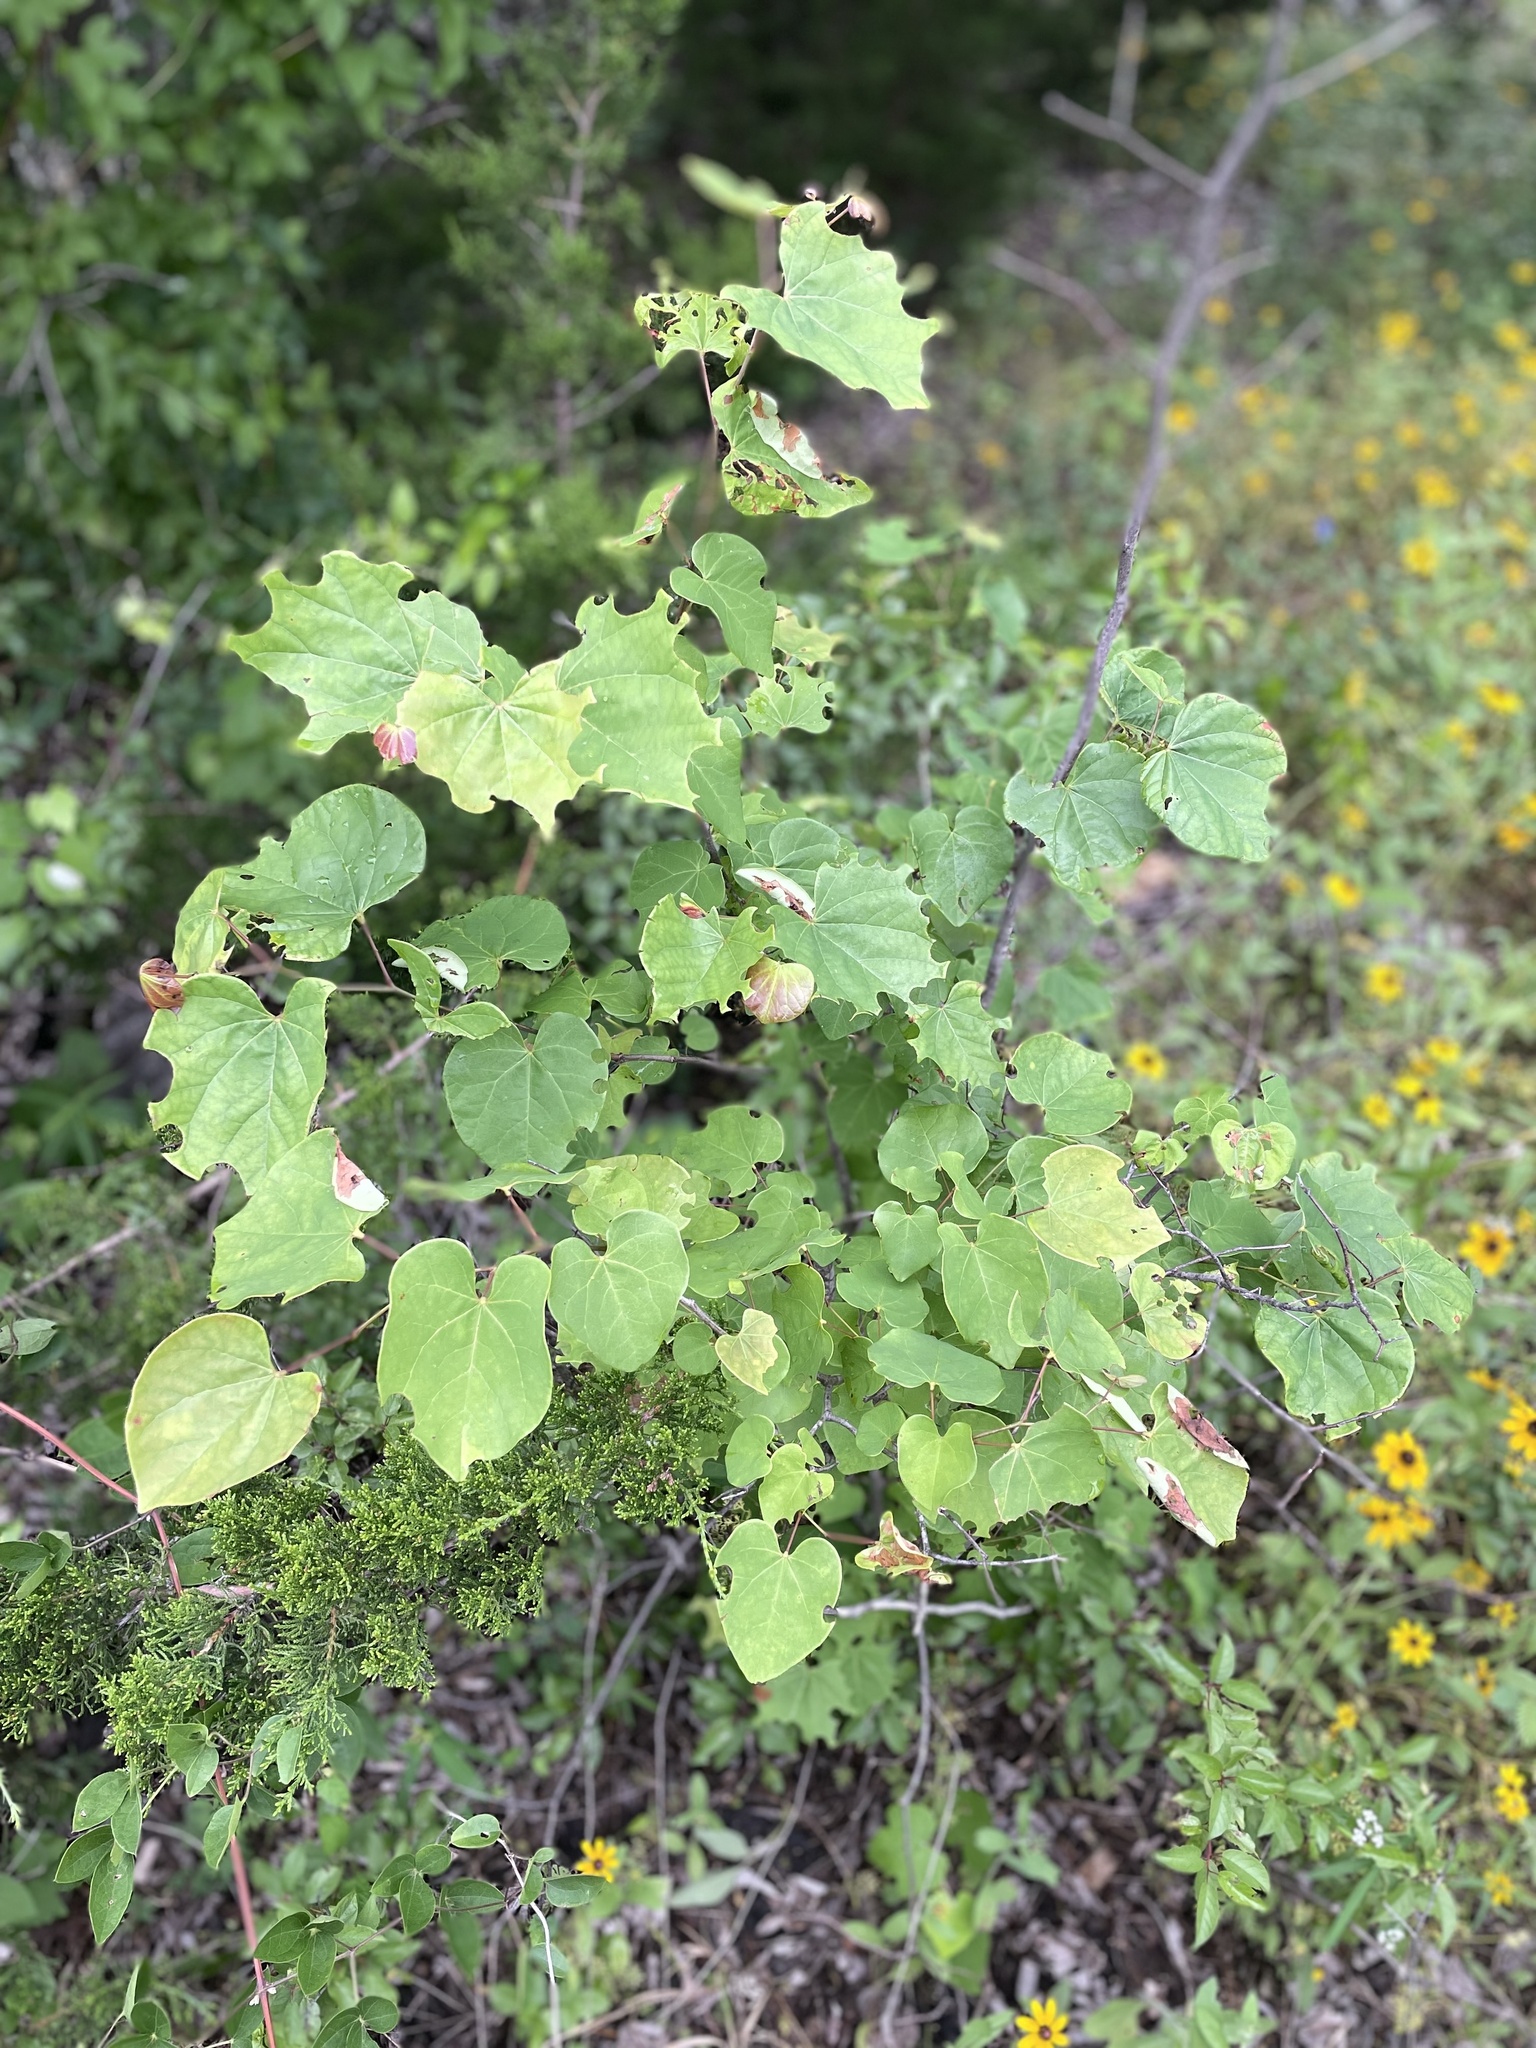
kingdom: Plantae
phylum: Tracheophyta
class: Magnoliopsida
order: Fabales
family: Fabaceae
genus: Cercis
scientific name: Cercis canadensis
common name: Eastern redbud
